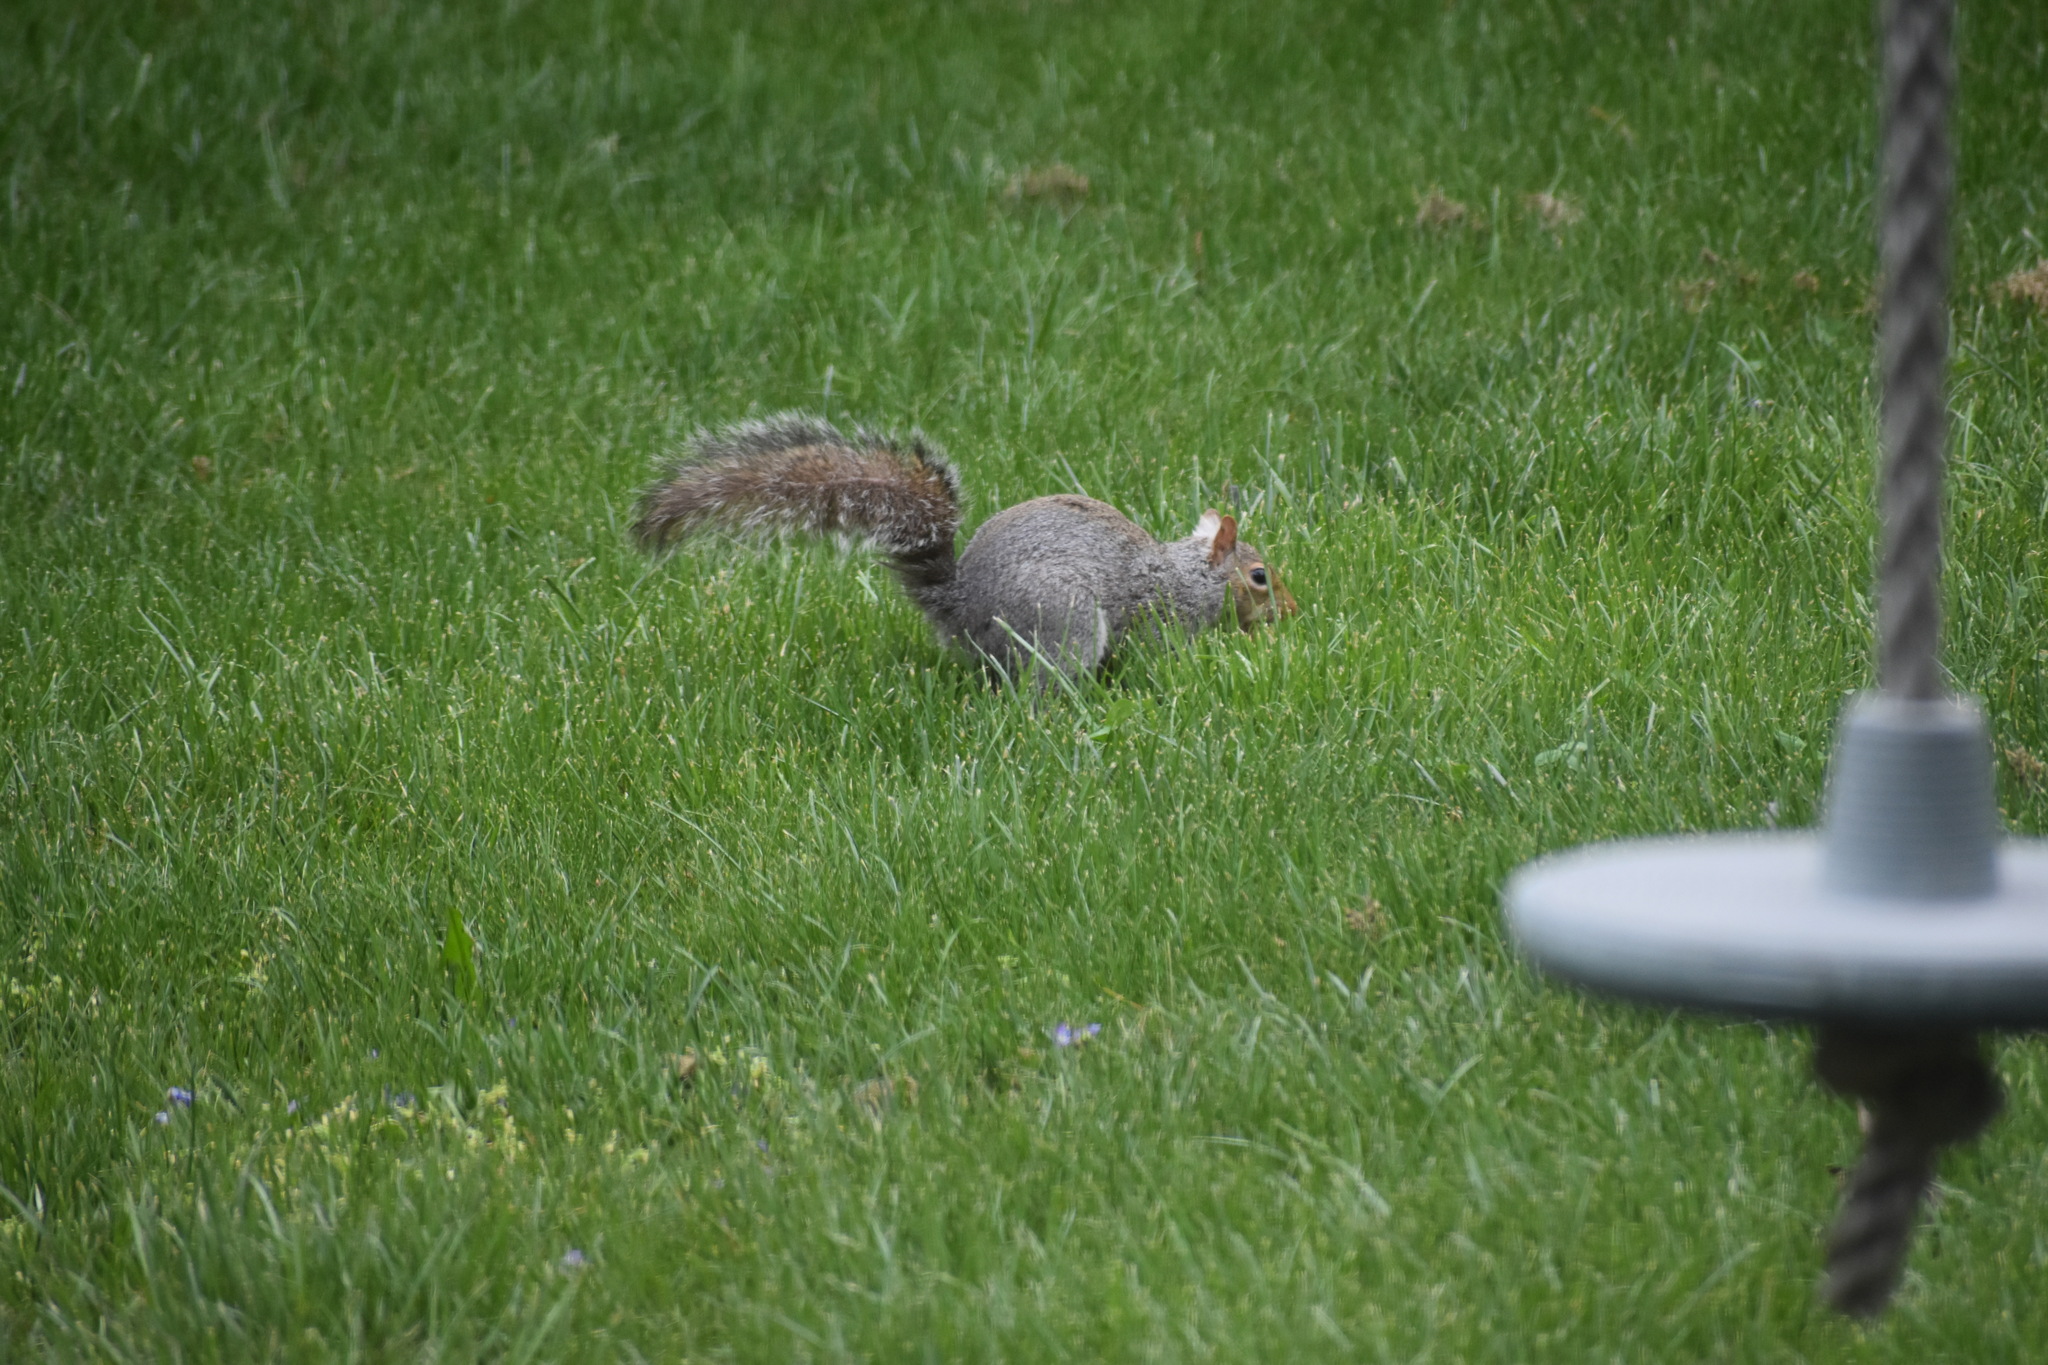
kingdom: Animalia
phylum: Chordata
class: Mammalia
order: Rodentia
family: Sciuridae
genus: Sciurus
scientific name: Sciurus carolinensis
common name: Eastern gray squirrel
